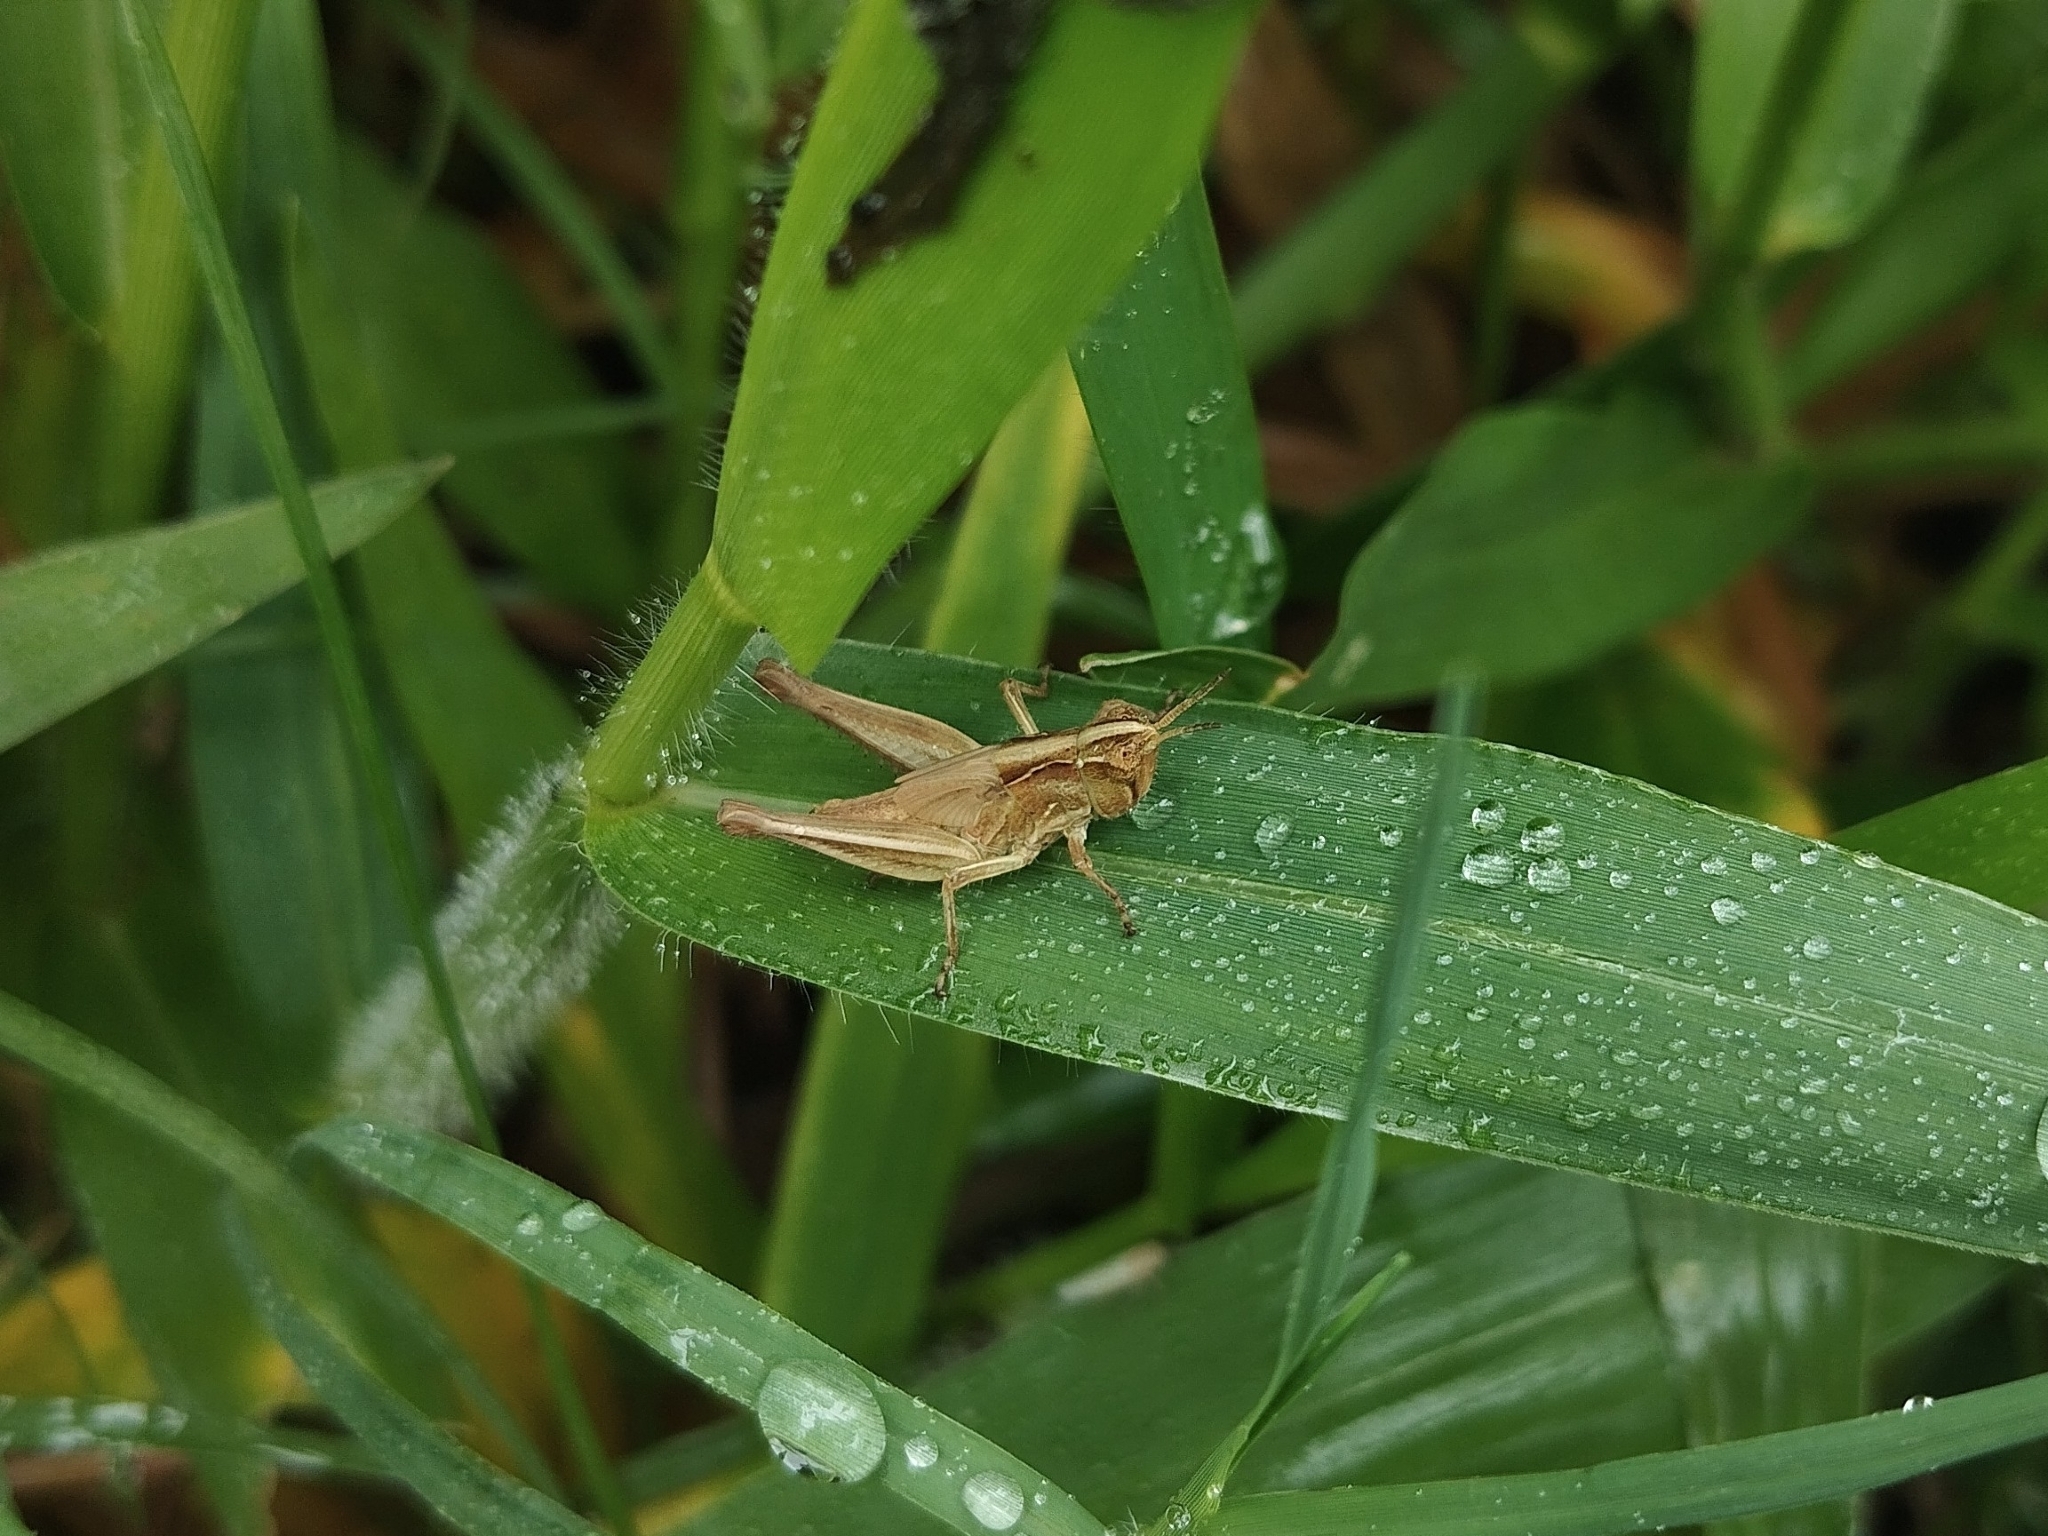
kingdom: Animalia
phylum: Arthropoda
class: Insecta
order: Orthoptera
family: Acrididae
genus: Orphulella
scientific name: Orphulella punctata
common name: Slant-faced grasshopper
